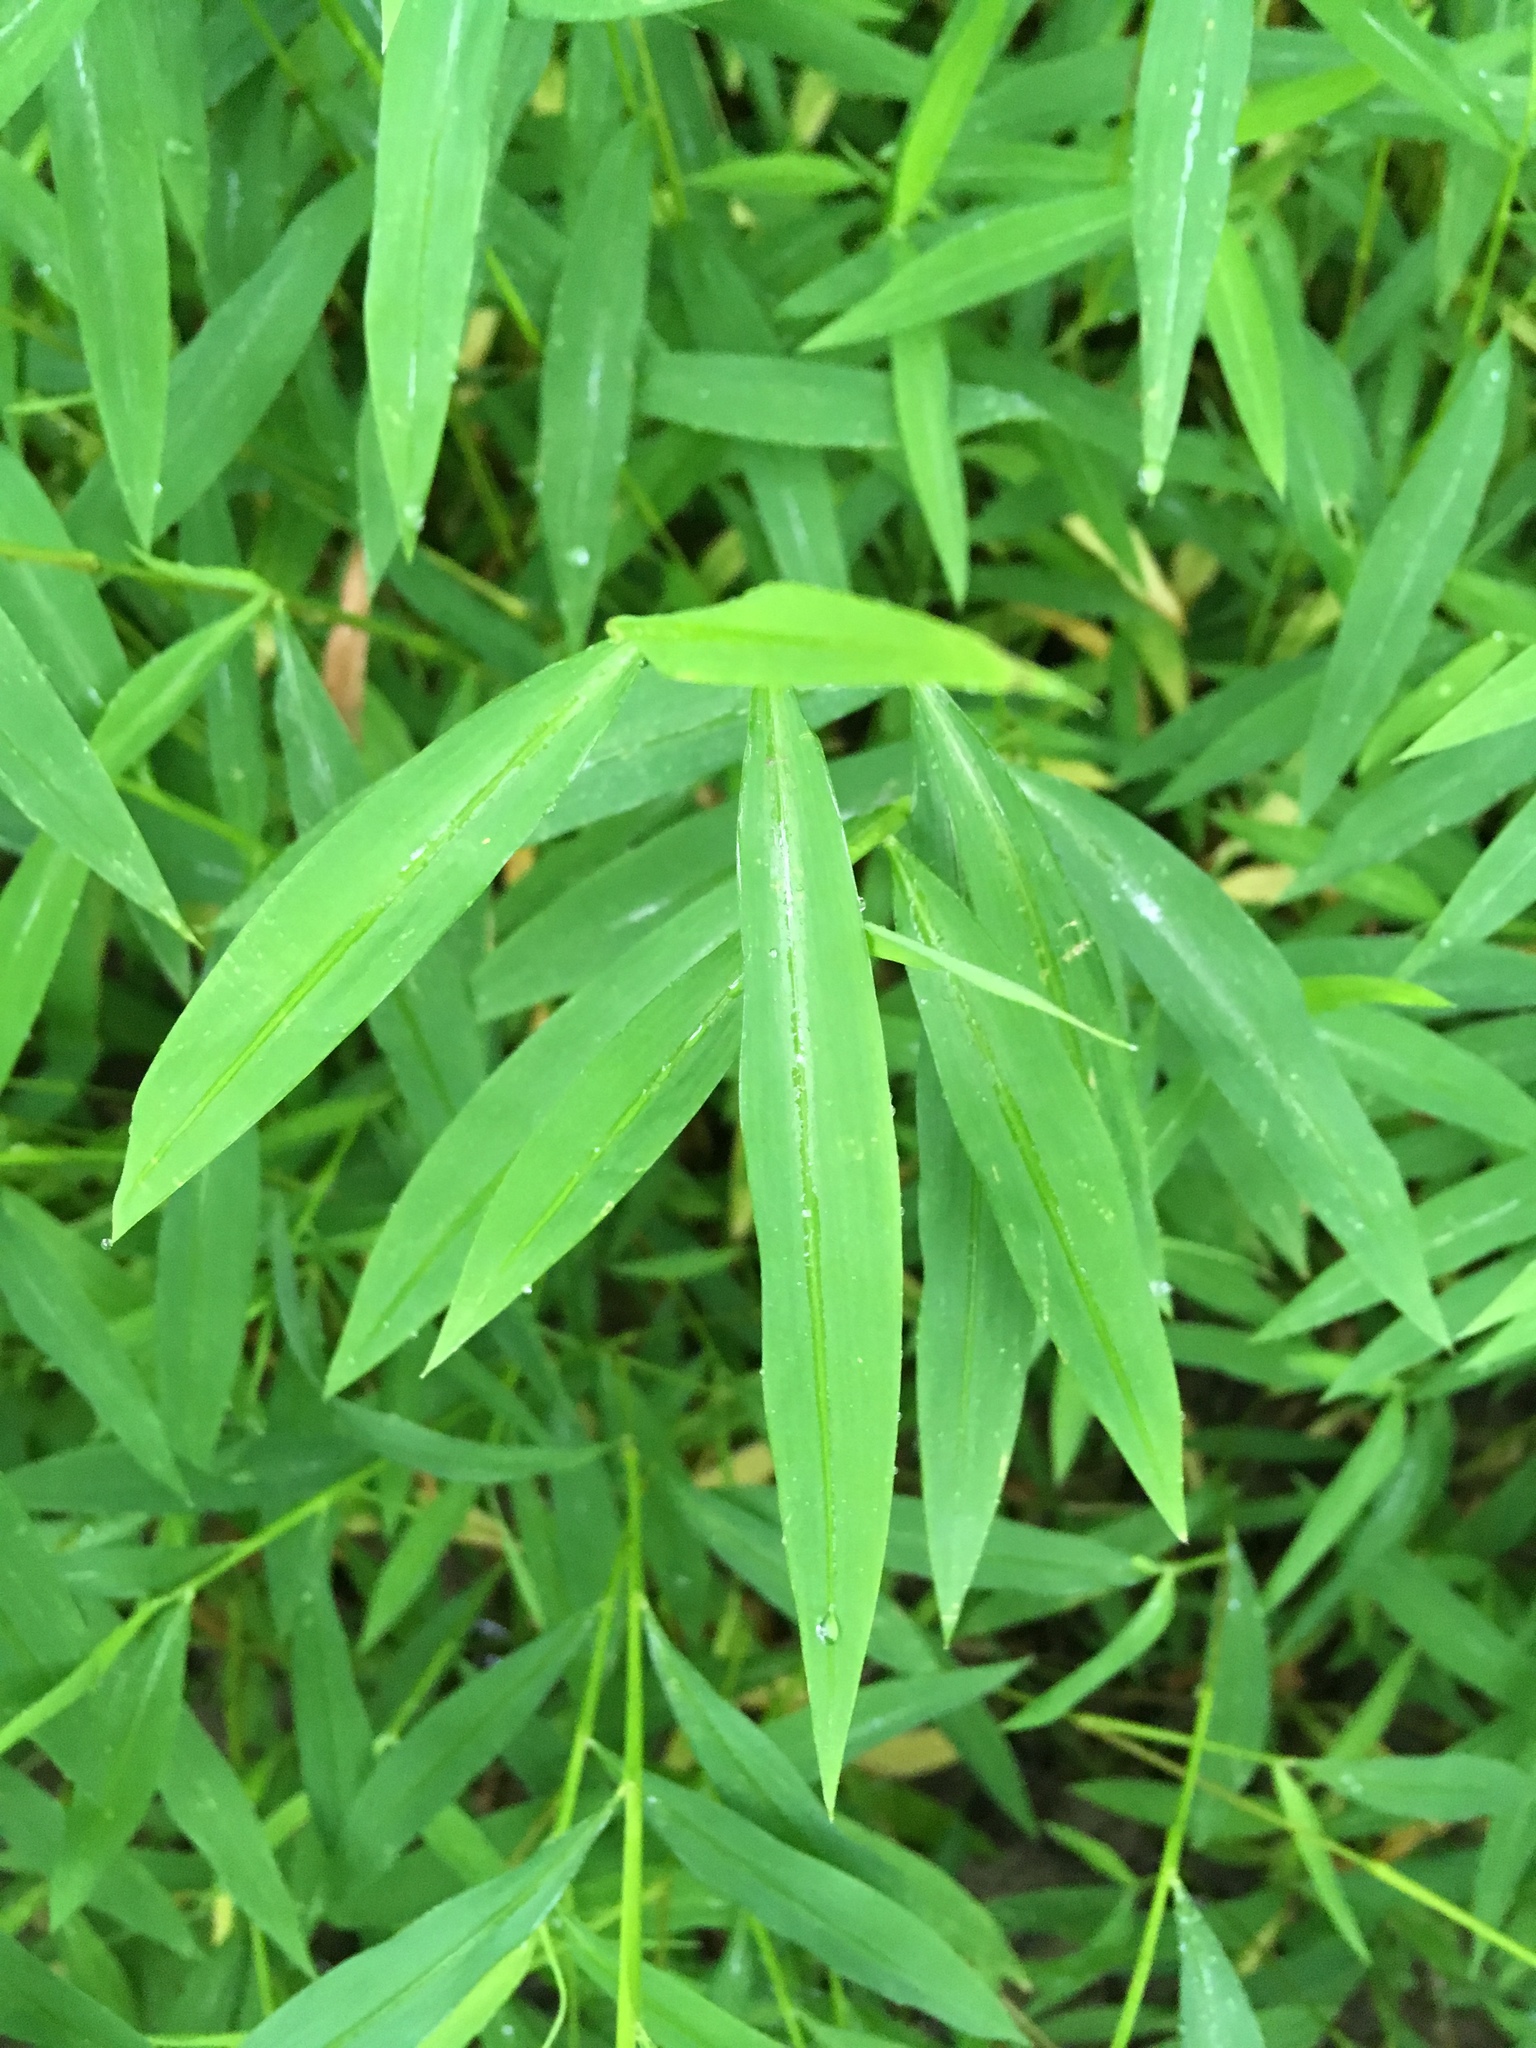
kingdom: Plantae
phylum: Tracheophyta
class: Liliopsida
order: Poales
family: Poaceae
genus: Microstegium
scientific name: Microstegium vimineum
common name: Japanese stiltgrass
